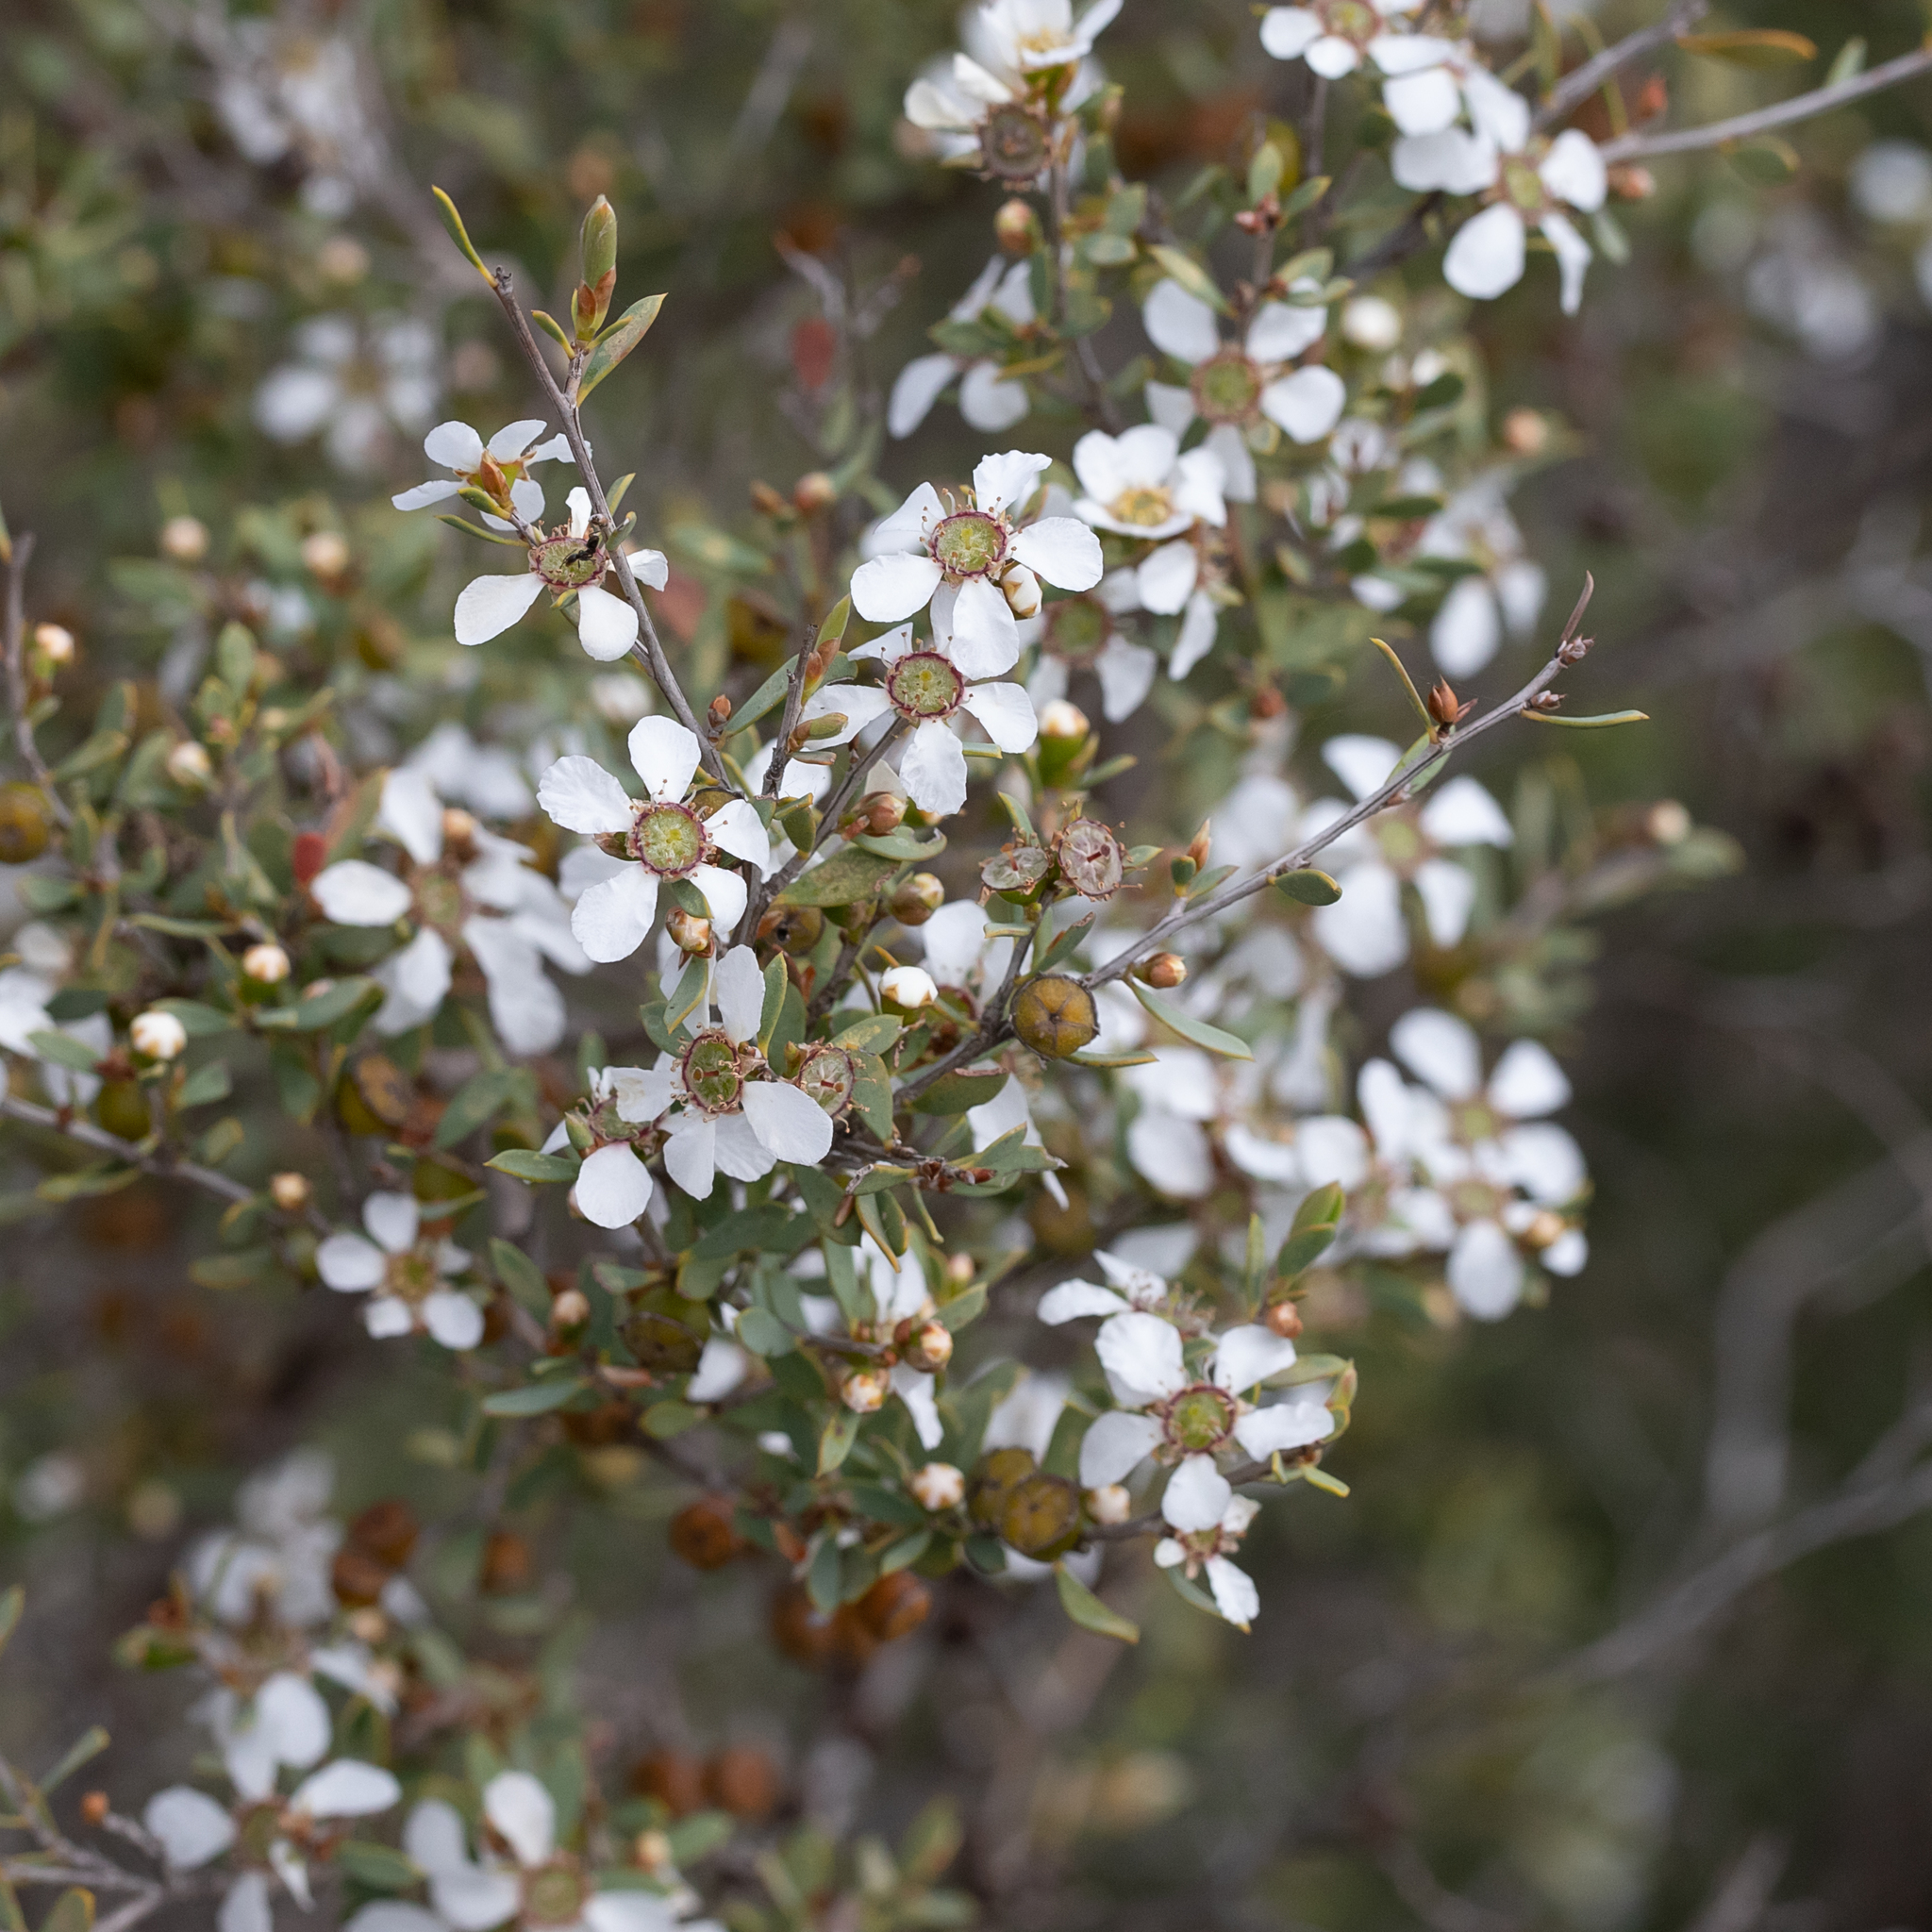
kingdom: Plantae
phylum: Tracheophyta
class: Magnoliopsida
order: Myrtales
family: Myrtaceae
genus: Leptospermum
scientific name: Leptospermum coriaceum
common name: Mallee teatree
